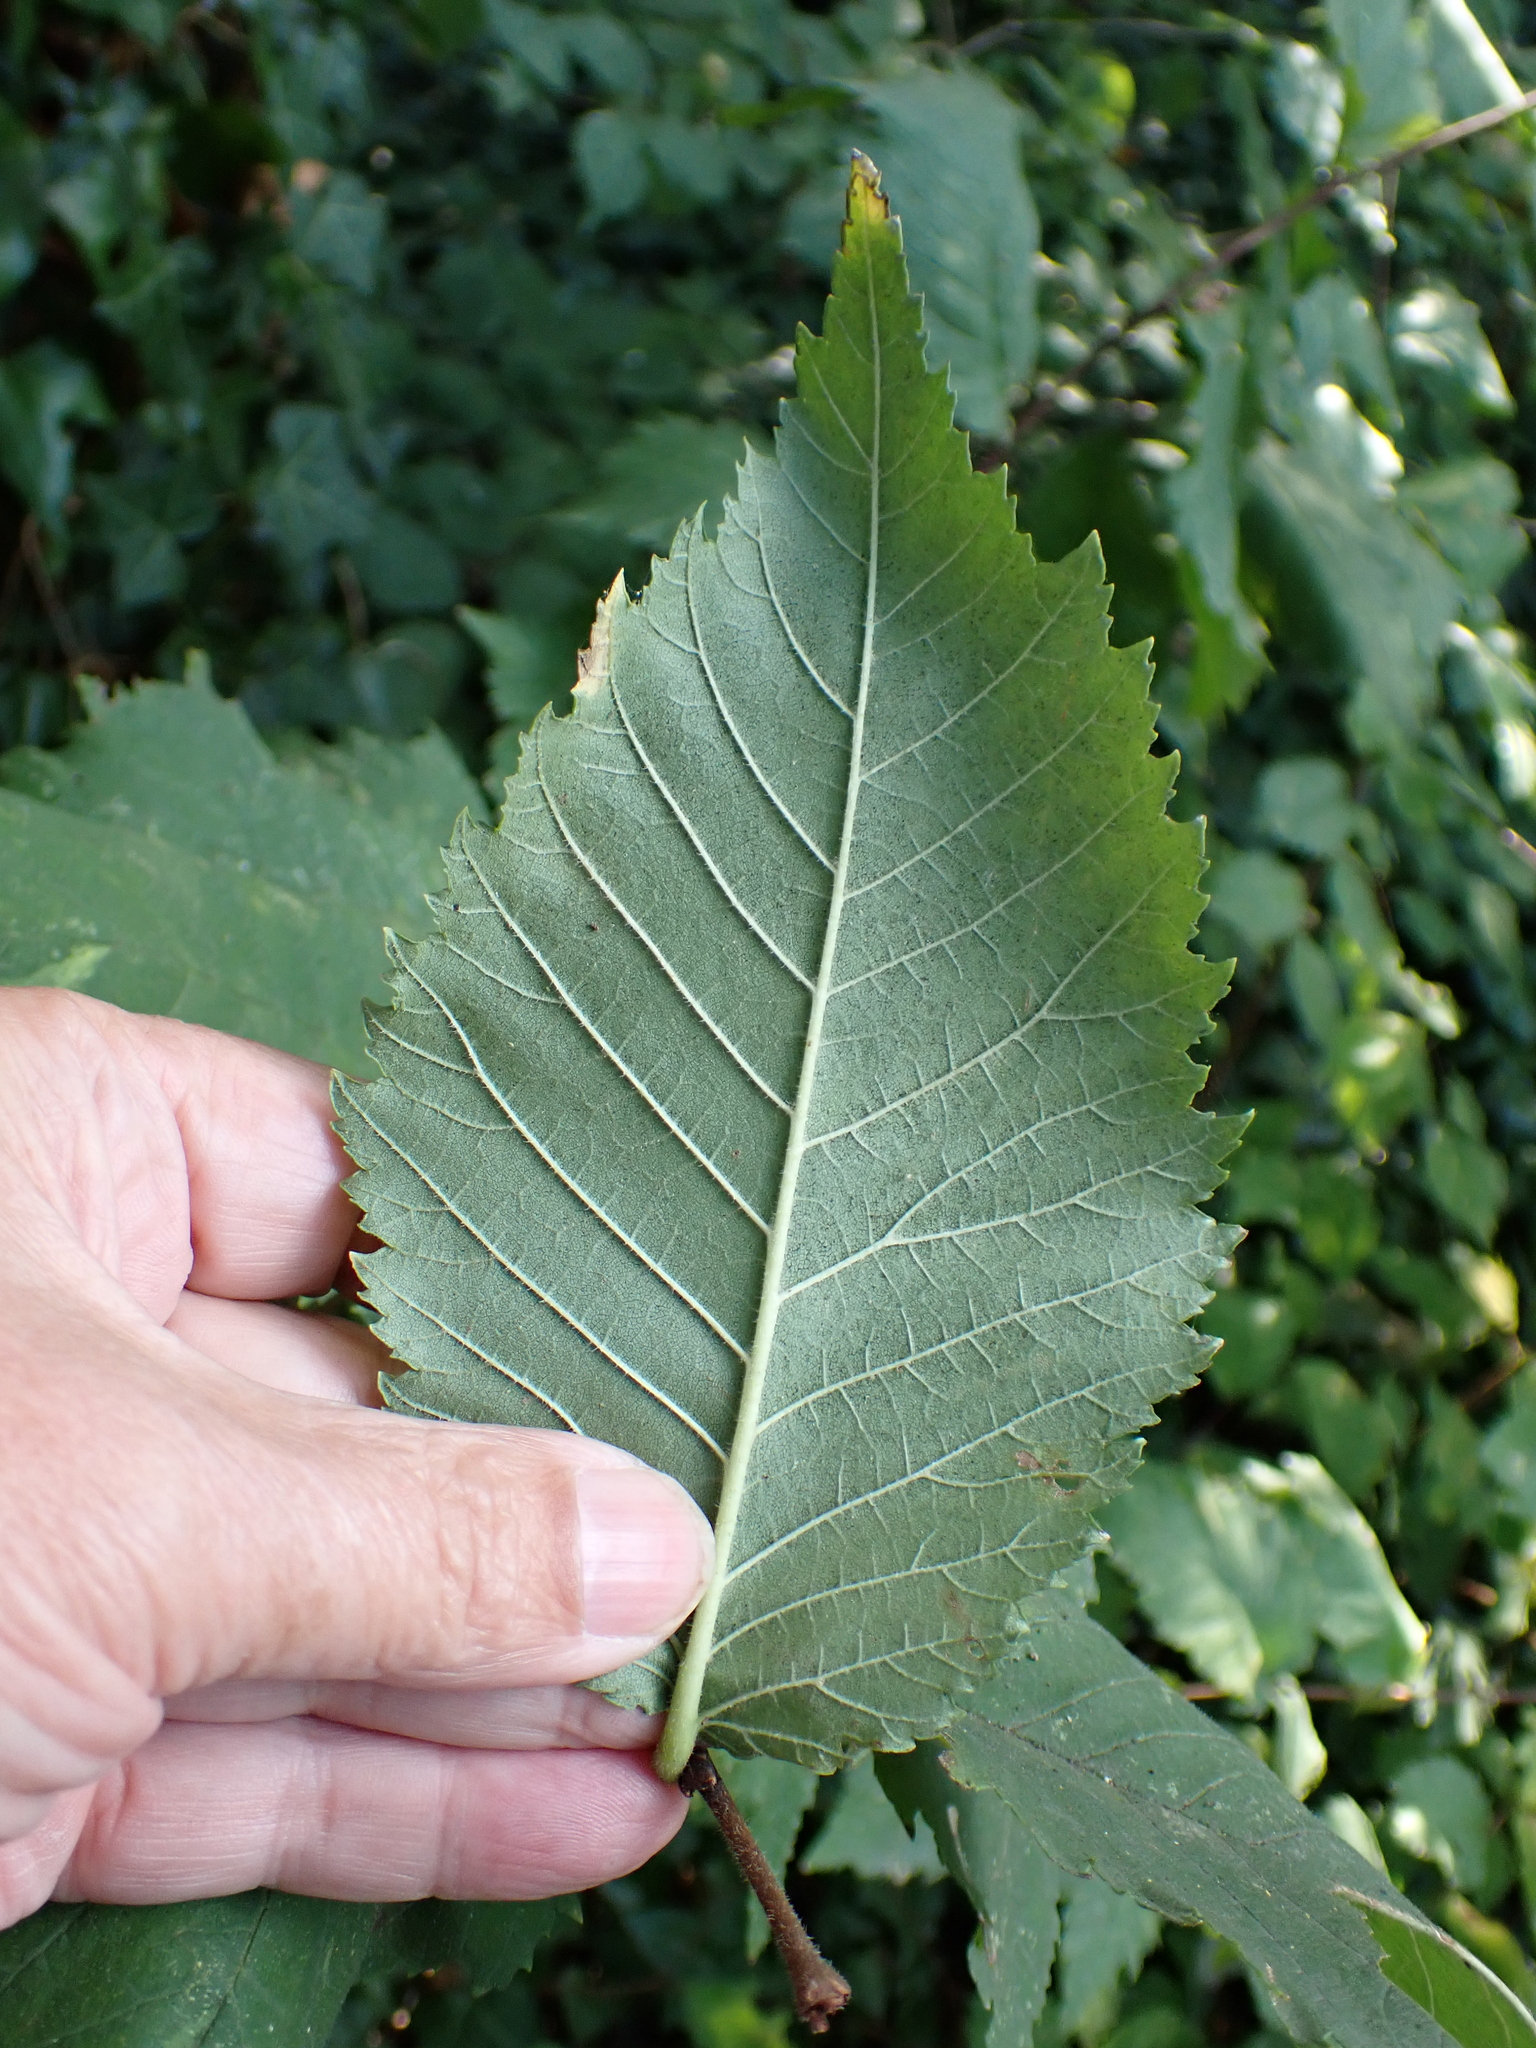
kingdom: Plantae
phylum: Tracheophyta
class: Magnoliopsida
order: Rosales
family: Ulmaceae
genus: Ulmus
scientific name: Ulmus glabra
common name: Wych elm
